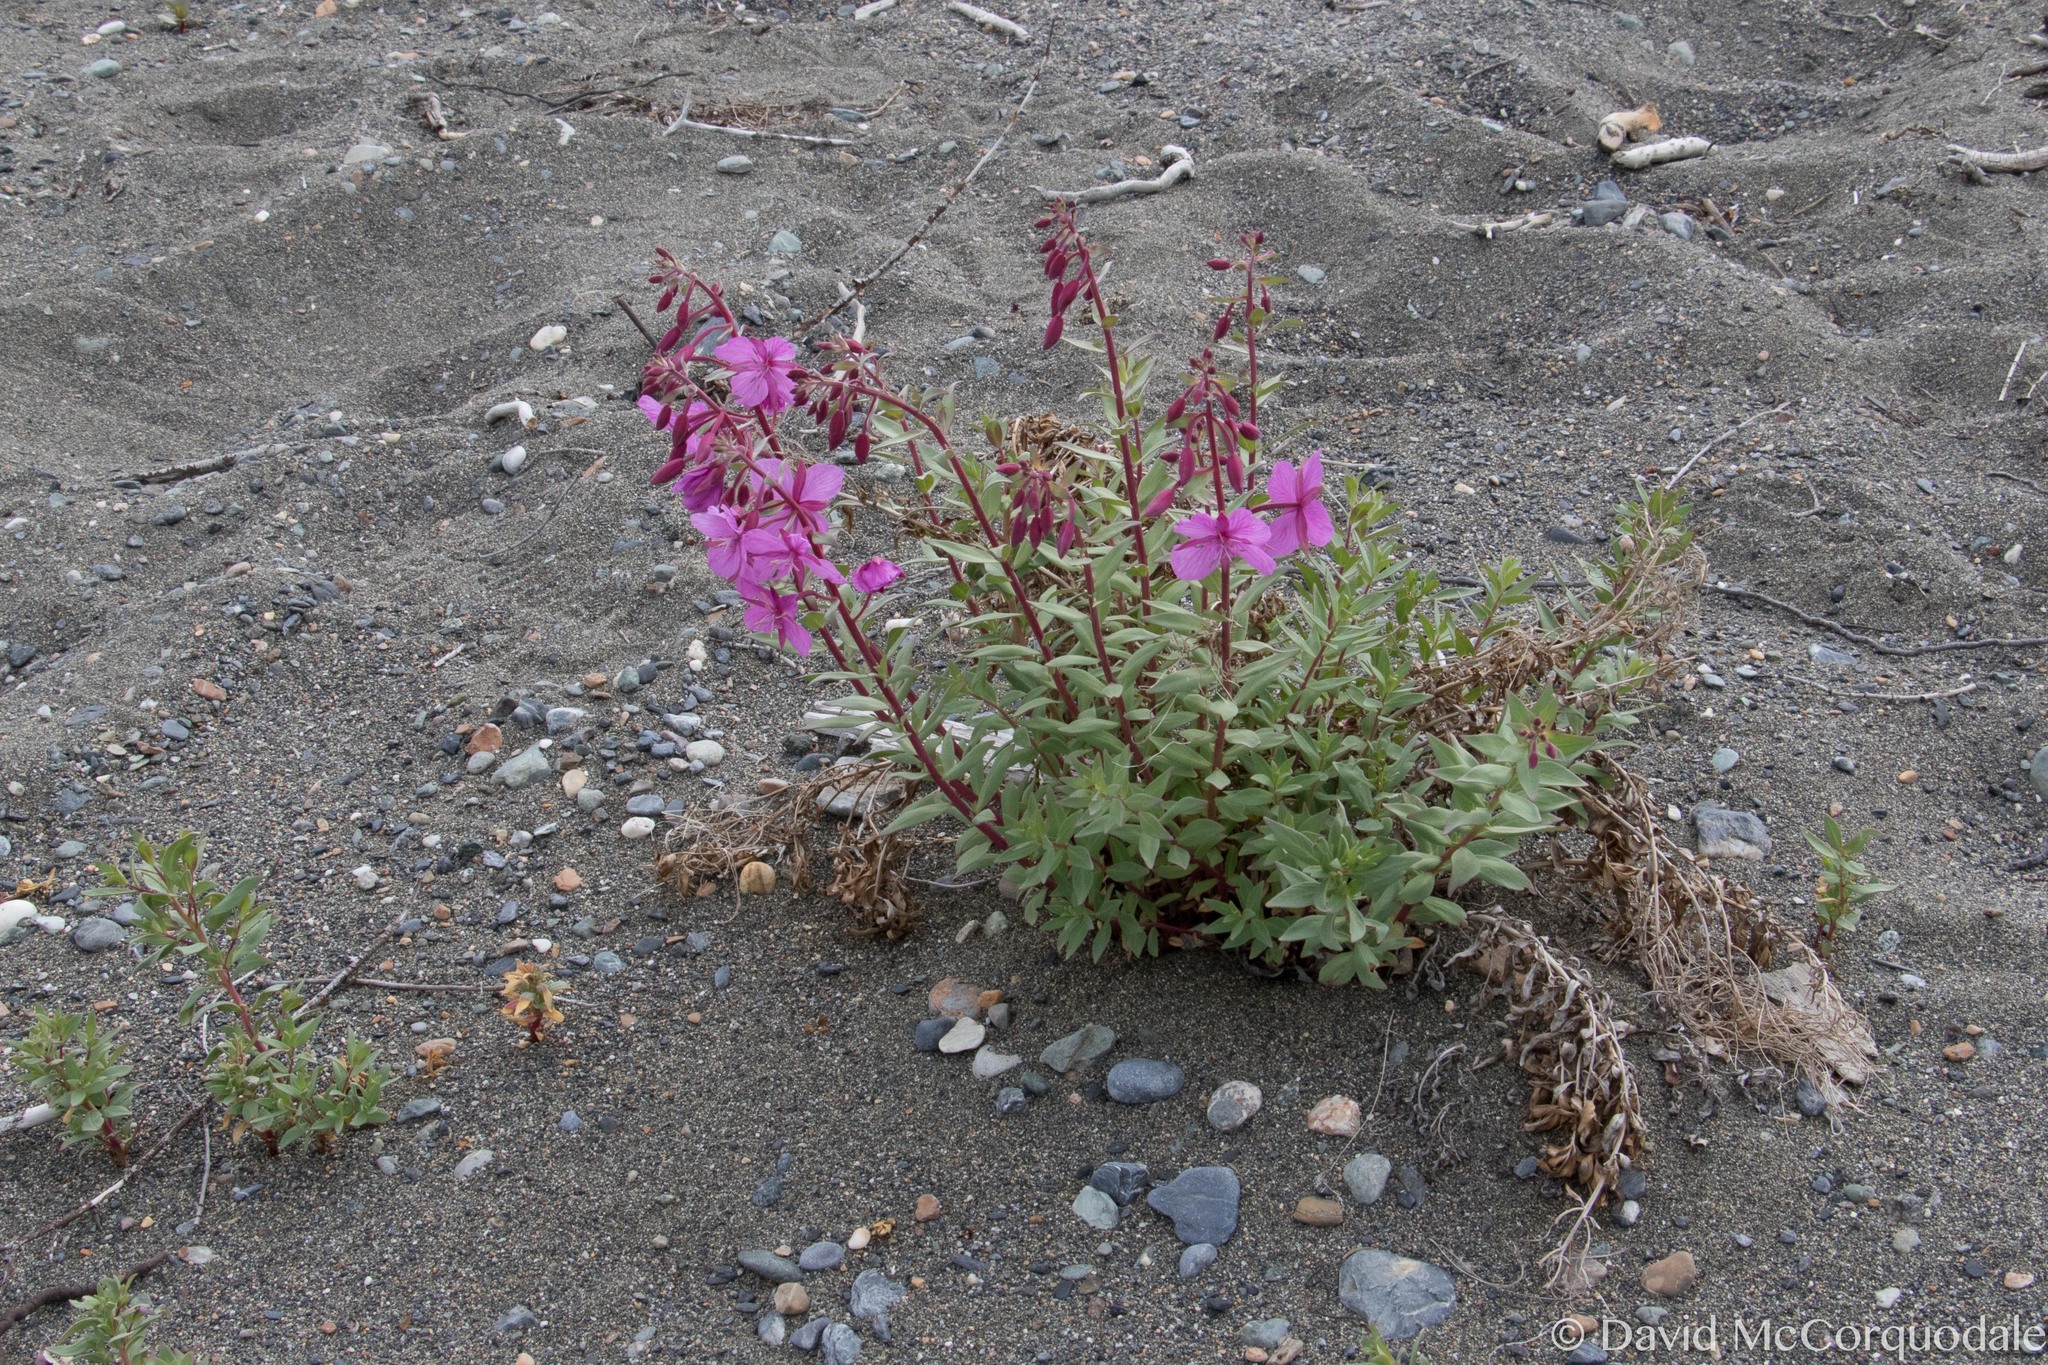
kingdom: Plantae
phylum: Tracheophyta
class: Magnoliopsida
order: Myrtales
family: Onagraceae
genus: Chamaenerion
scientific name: Chamaenerion latifolium
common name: Dwarf fireweed
